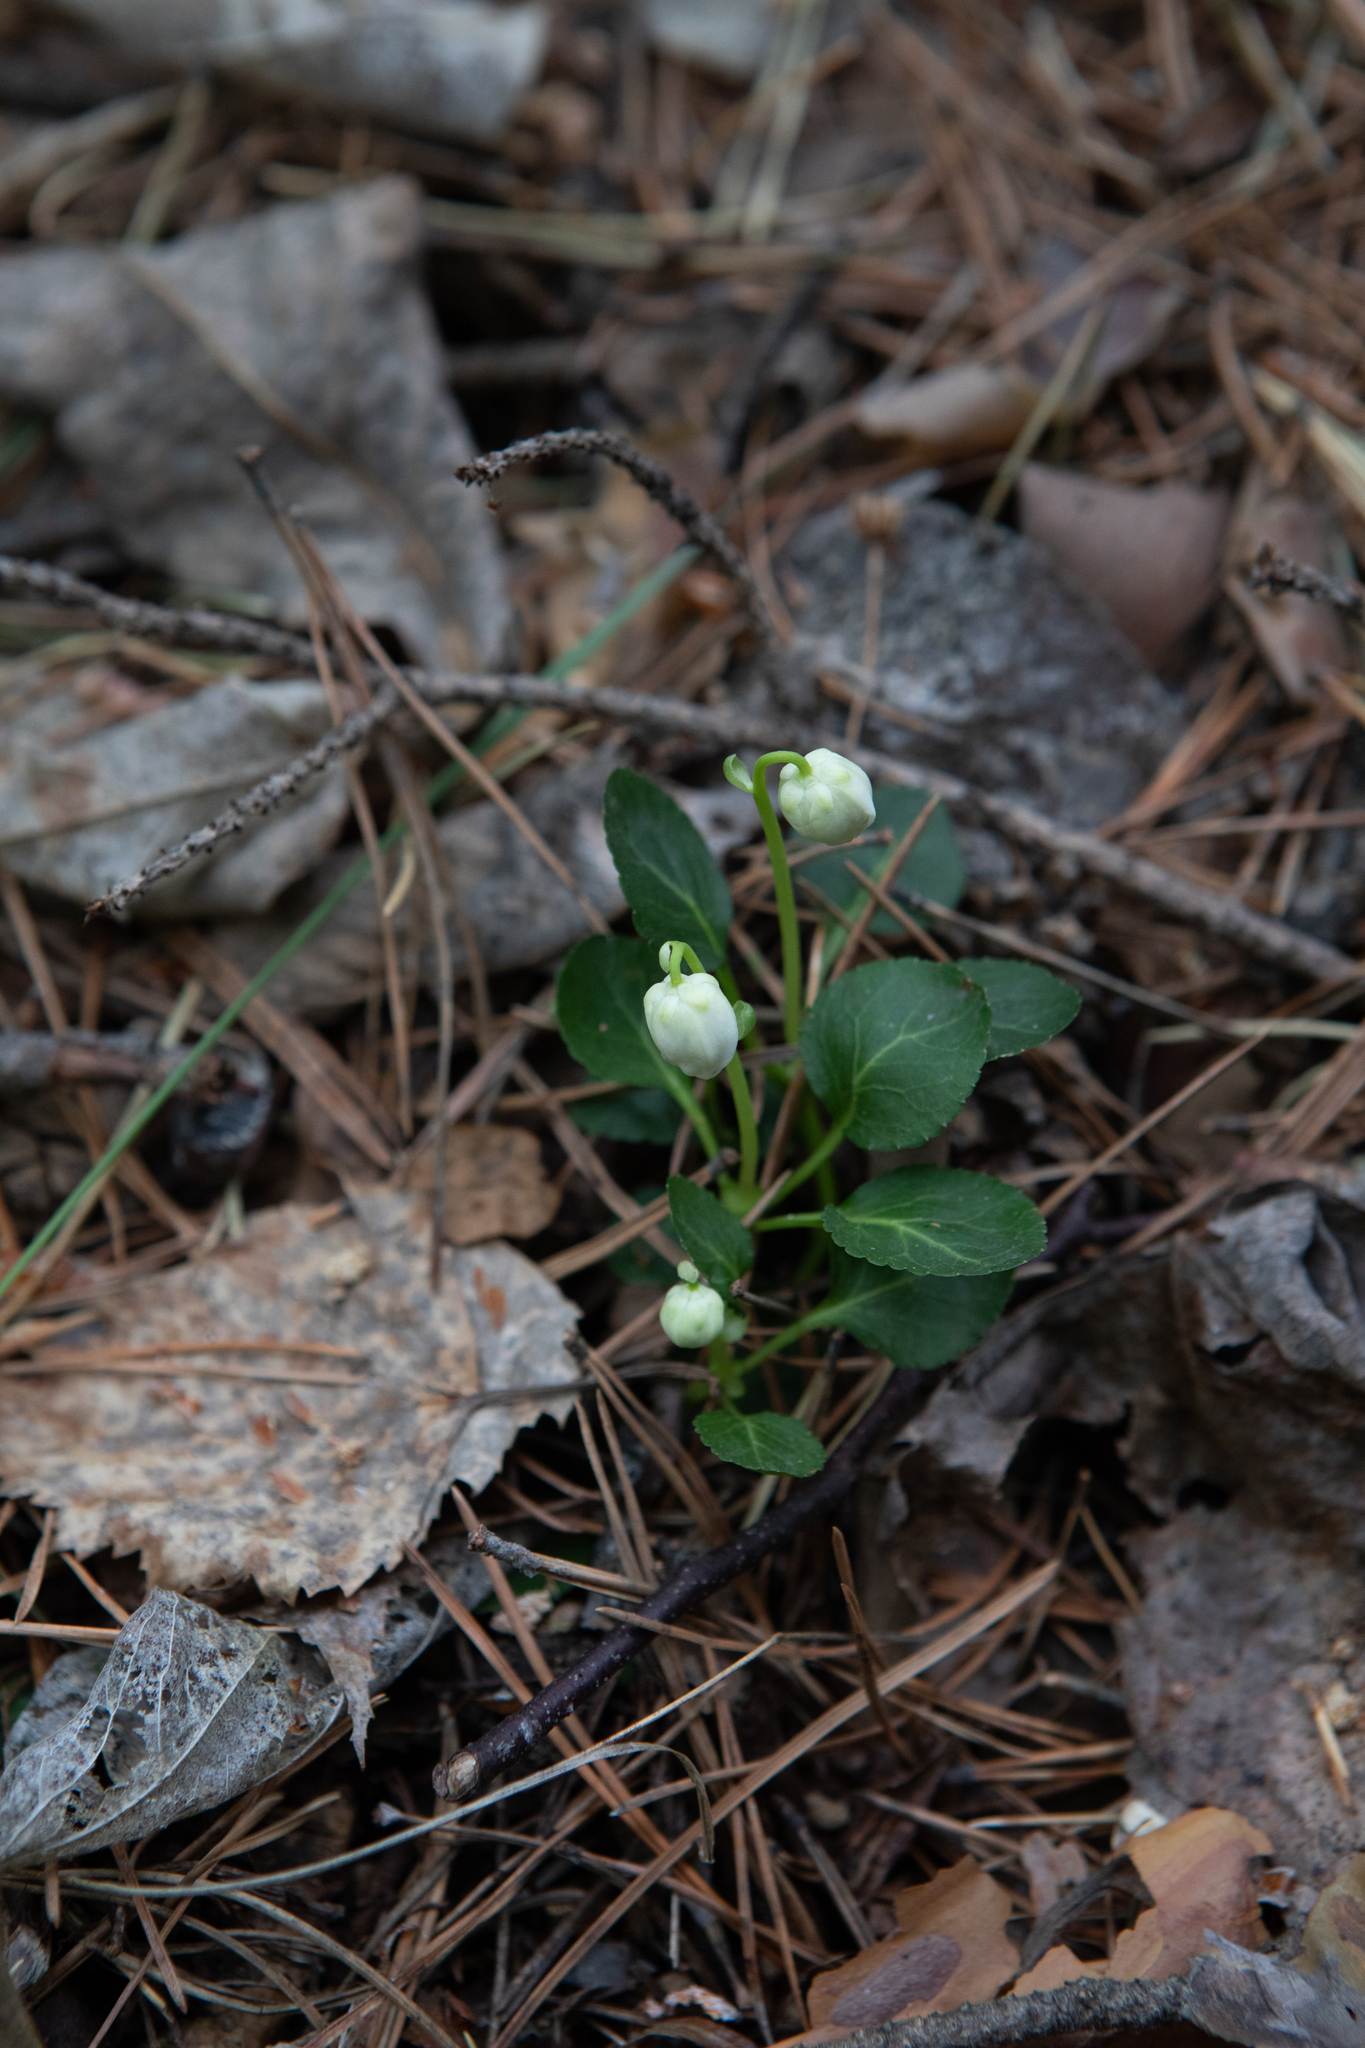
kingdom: Plantae
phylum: Tracheophyta
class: Magnoliopsida
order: Ericales
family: Ericaceae
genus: Moneses
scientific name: Moneses uniflora
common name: One-flowered wintergreen
